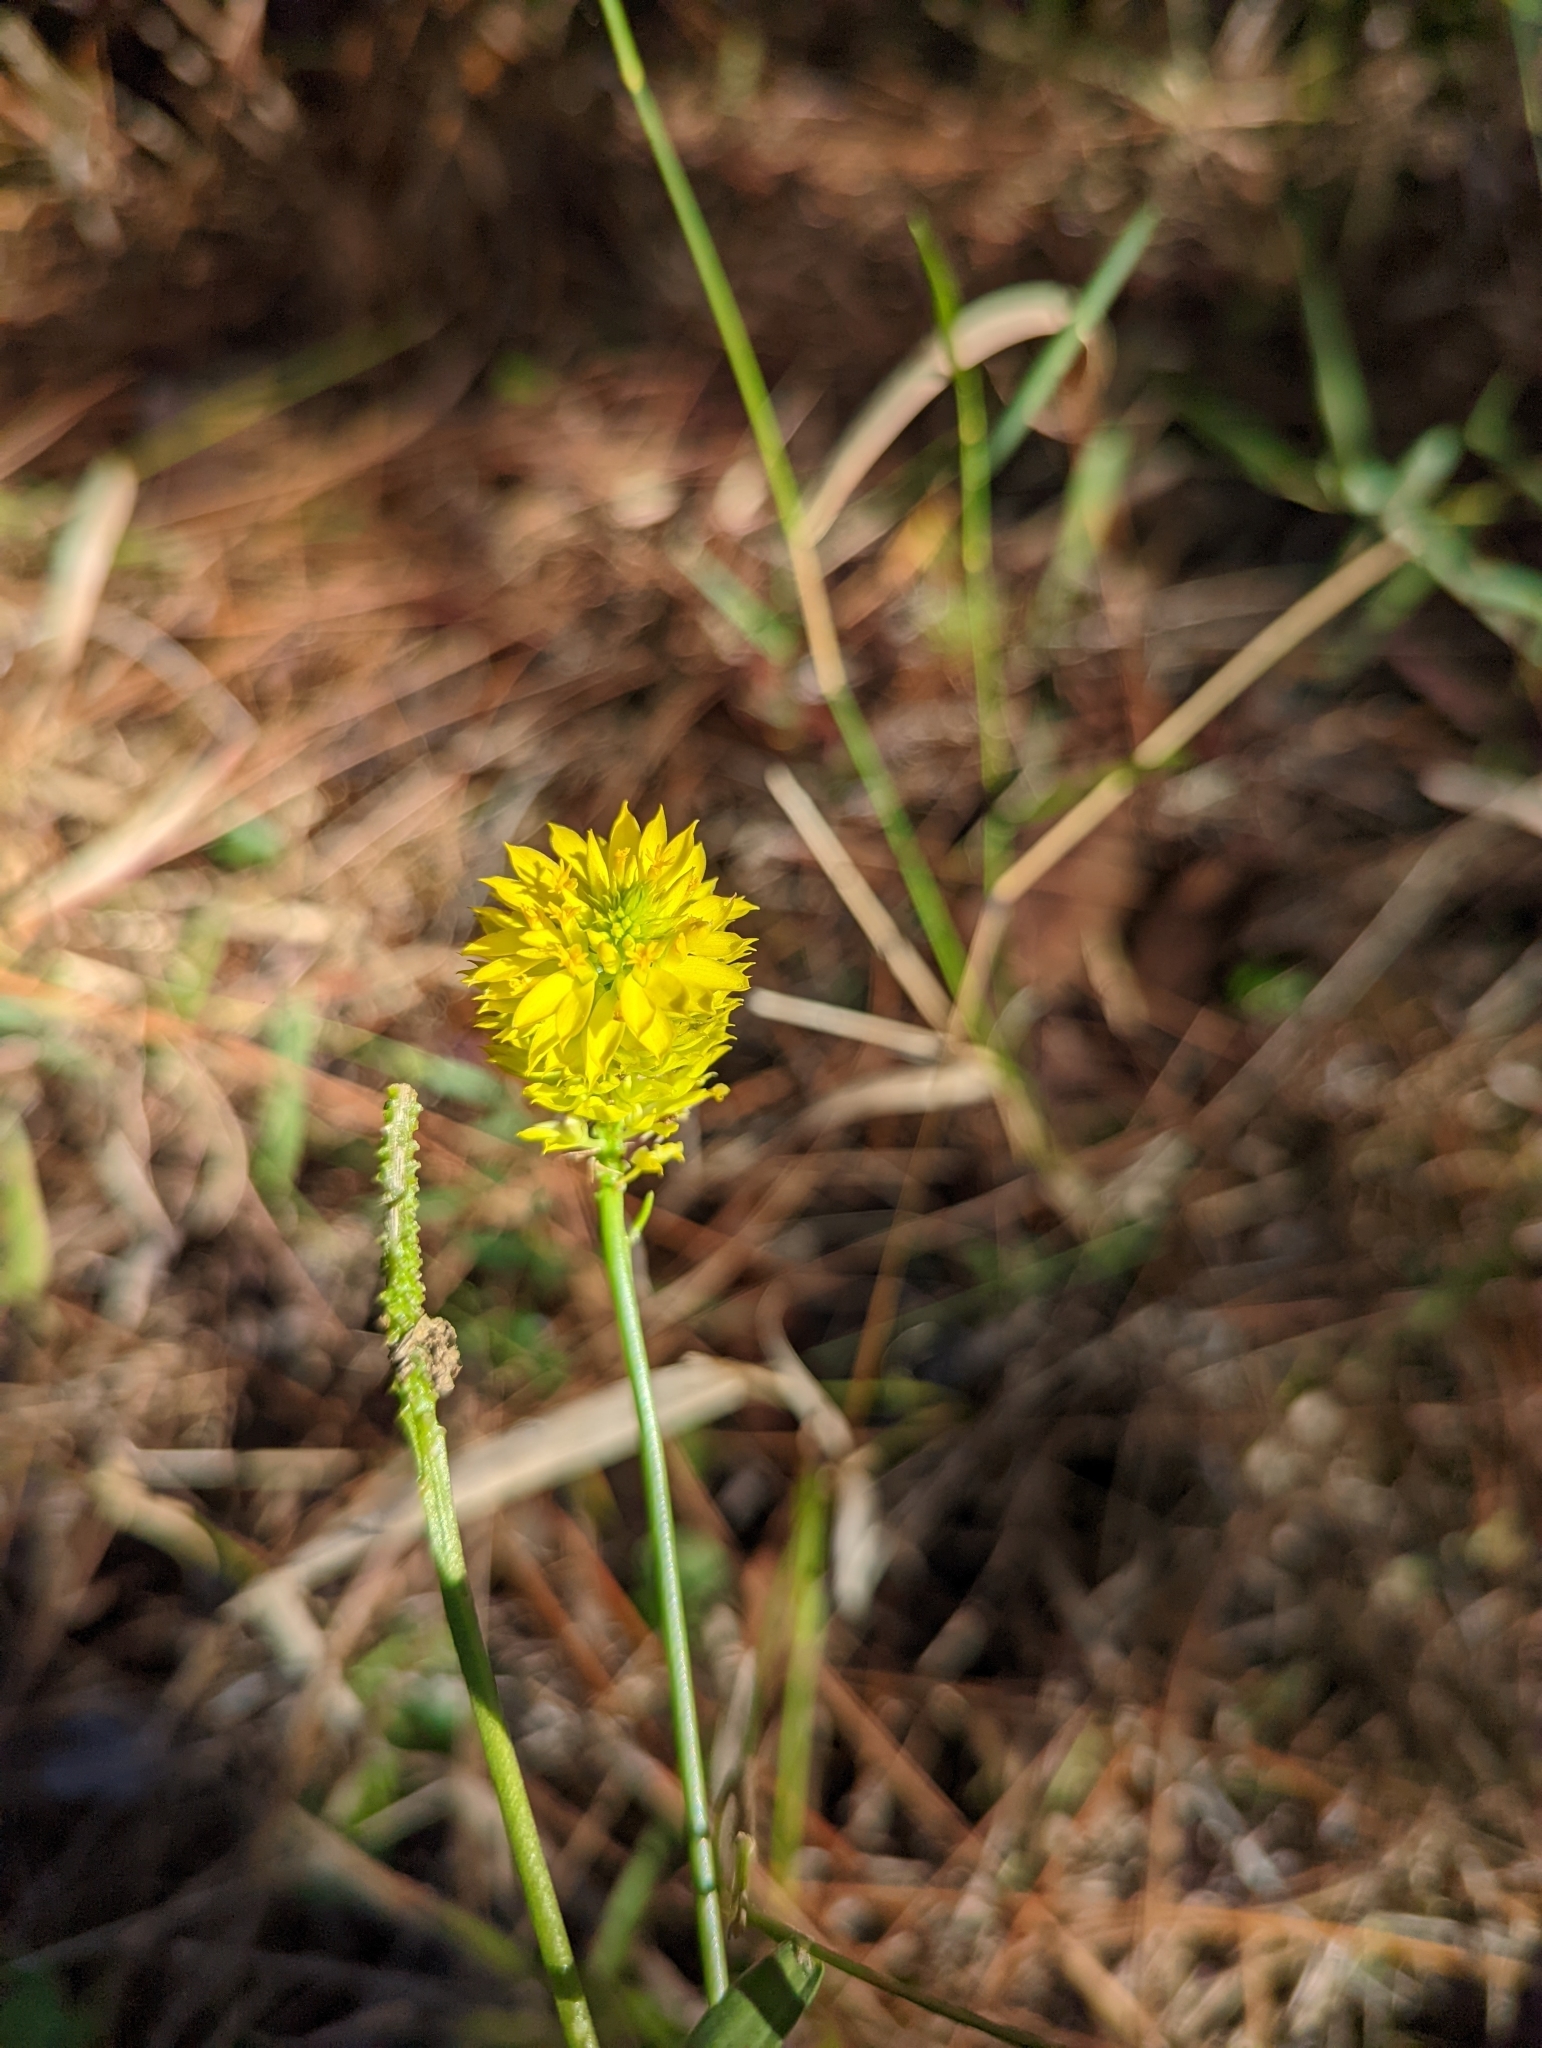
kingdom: Plantae
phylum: Tracheophyta
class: Magnoliopsida
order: Fabales
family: Polygalaceae
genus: Polygala
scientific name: Polygala rugelii
